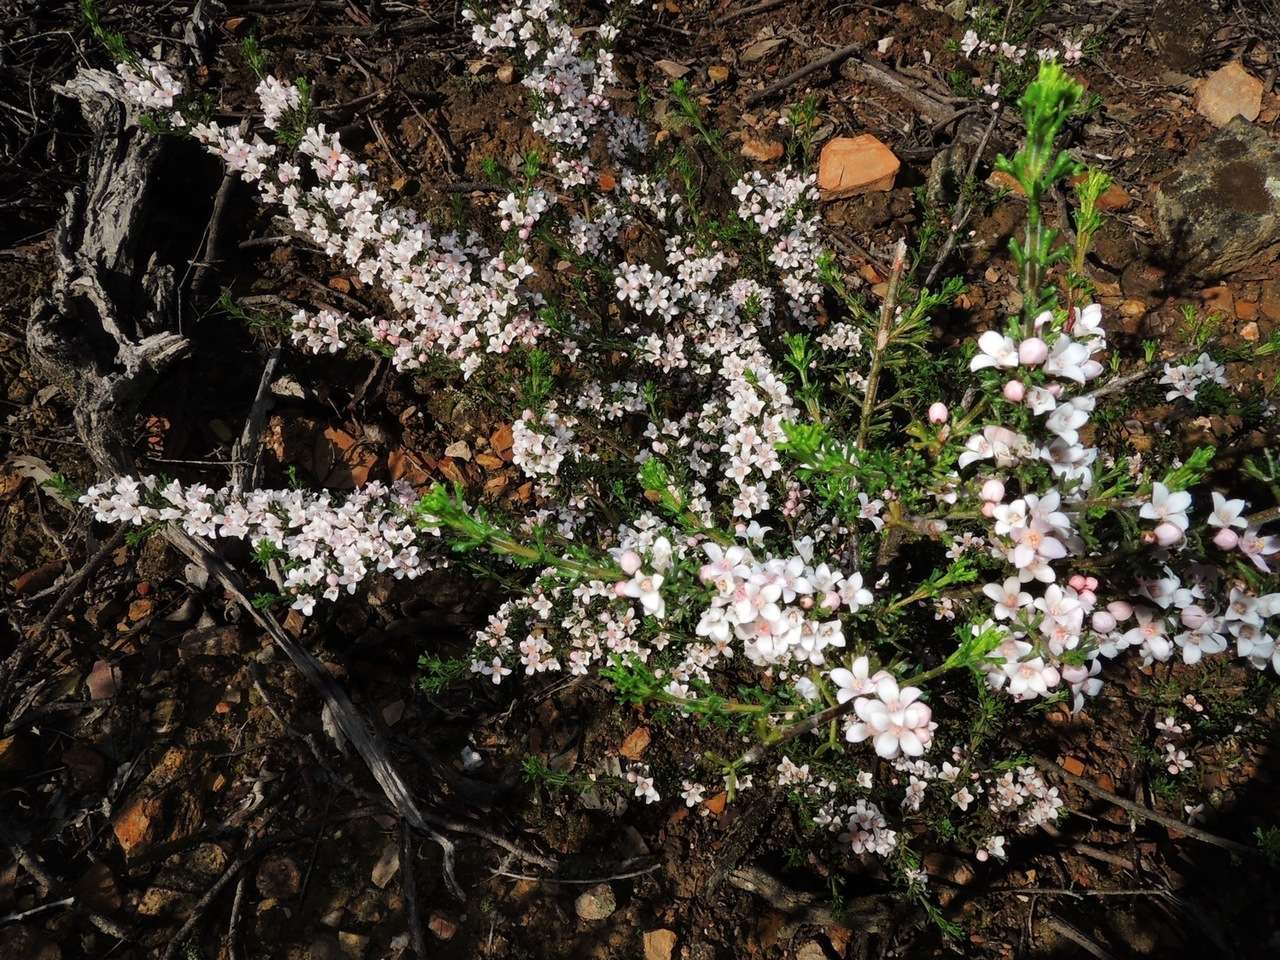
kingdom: Plantae
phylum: Tracheophyta
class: Magnoliopsida
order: Sapindales
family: Rutaceae
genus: Cyanothamnus
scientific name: Cyanothamnus anemonifolius
